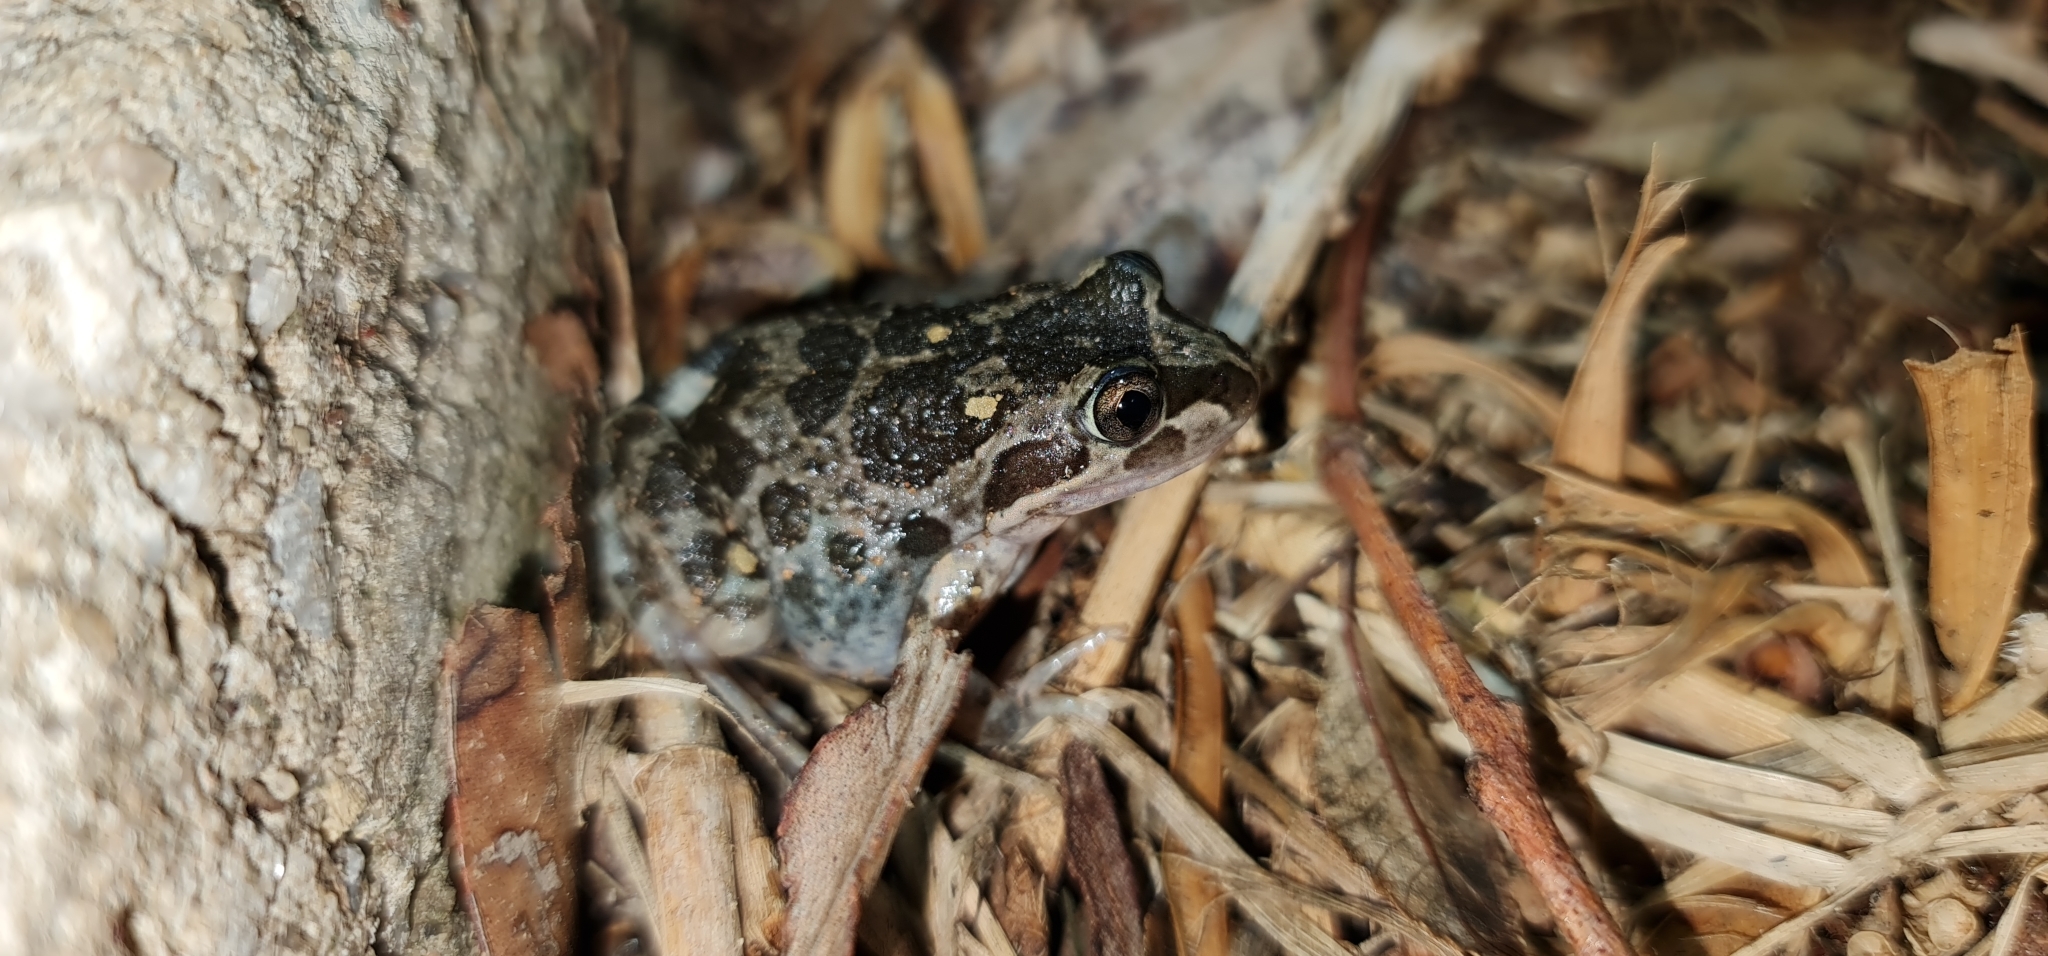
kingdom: Animalia
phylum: Chordata
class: Amphibia
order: Anura
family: Limnodynastidae
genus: Limnodynastes
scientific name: Limnodynastes tasmaniensis
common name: Spotted marsh frog
